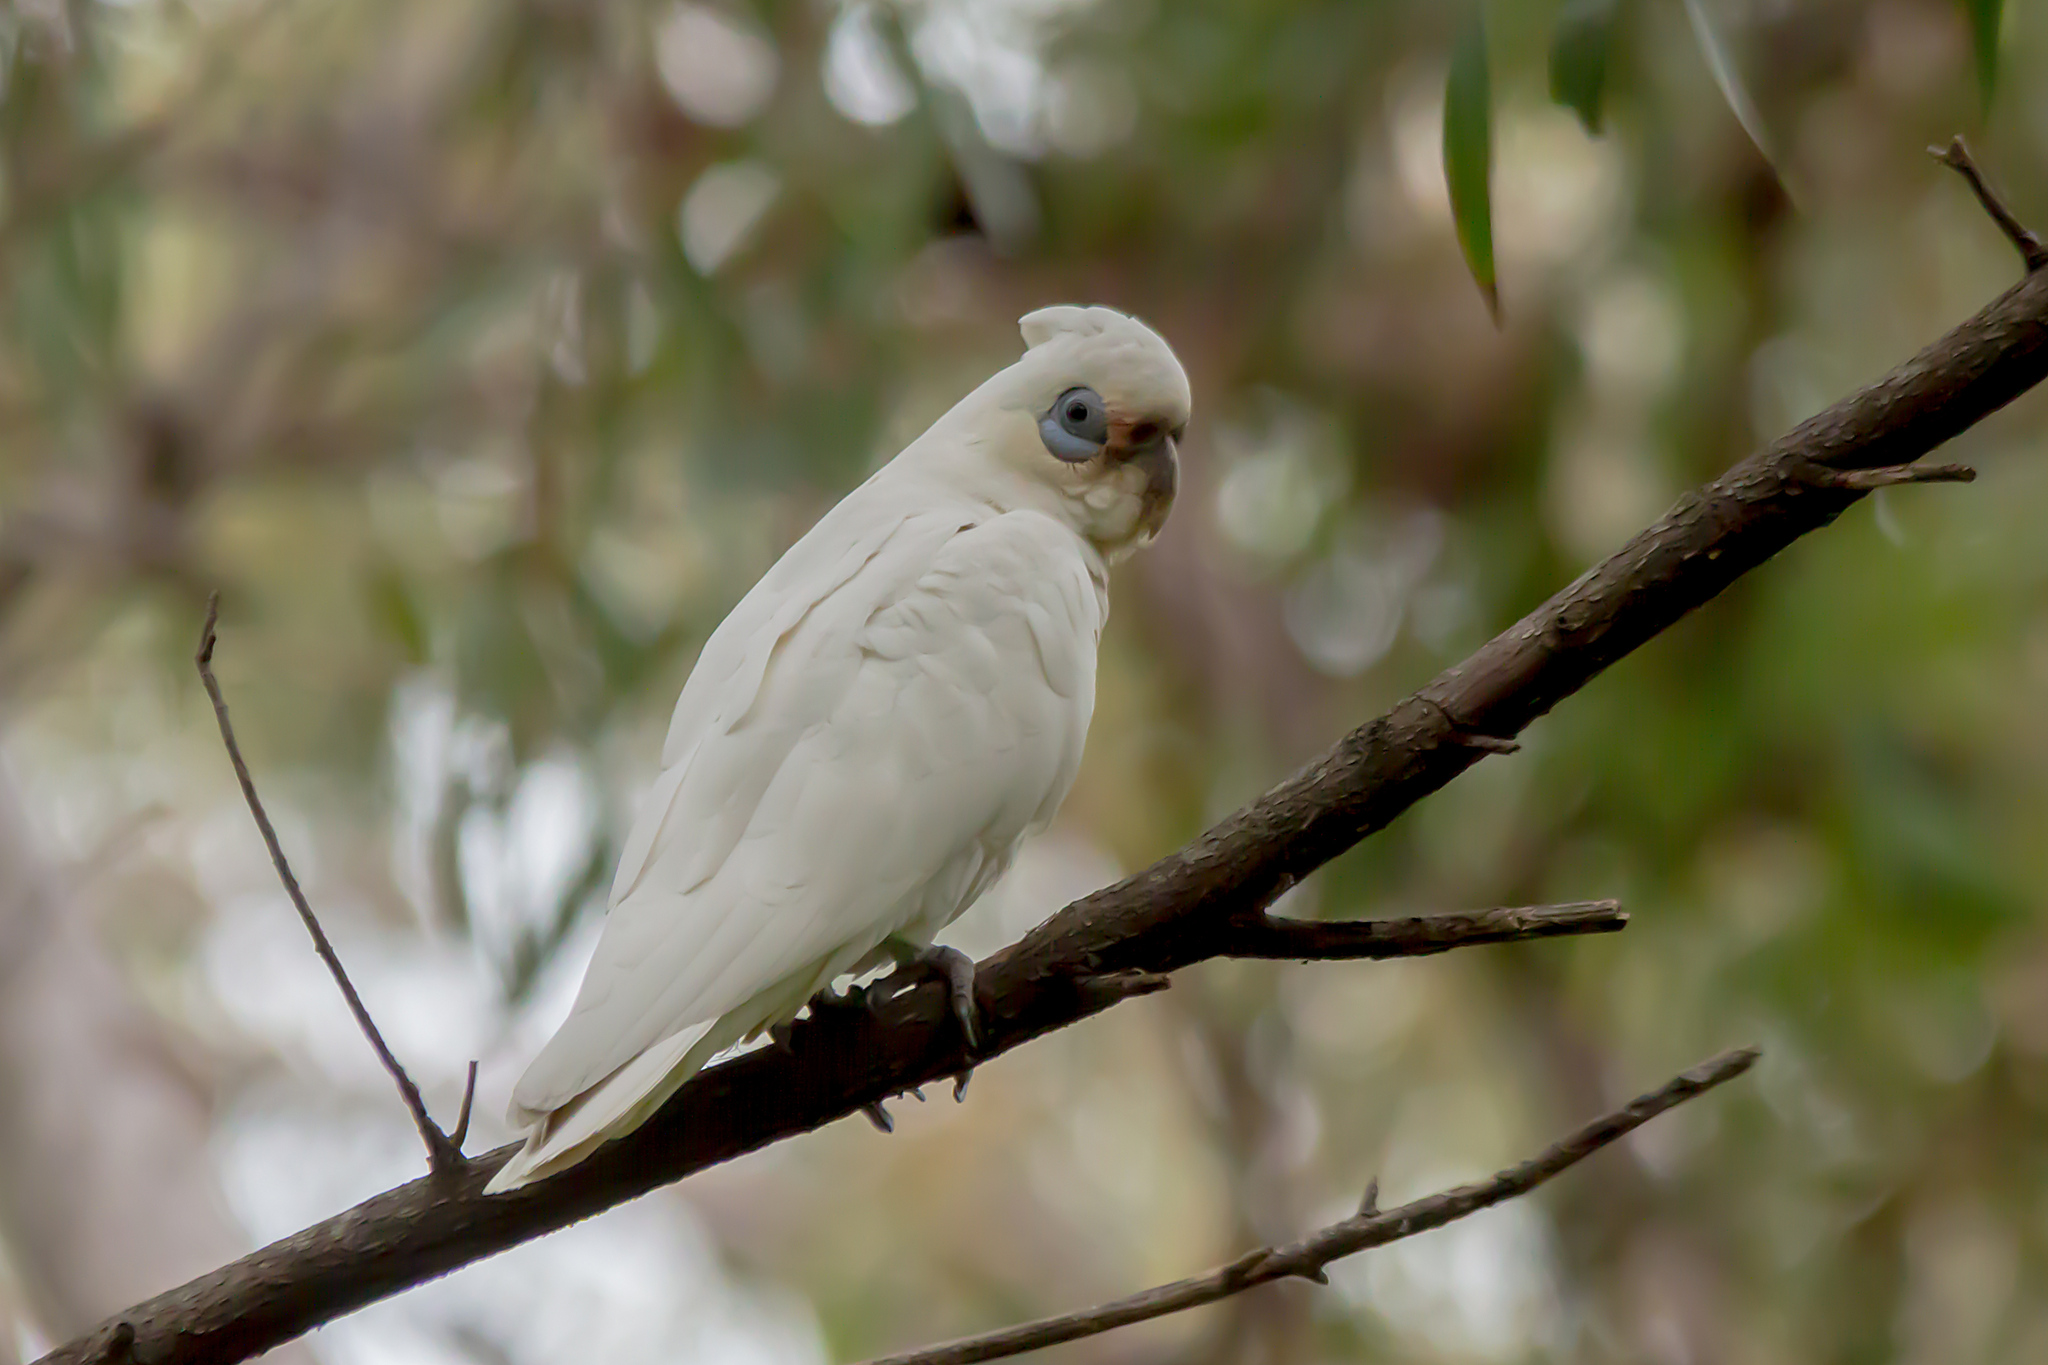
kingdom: Animalia
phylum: Chordata
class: Aves
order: Psittaciformes
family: Psittacidae
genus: Cacatua
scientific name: Cacatua sanguinea
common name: Little corella
